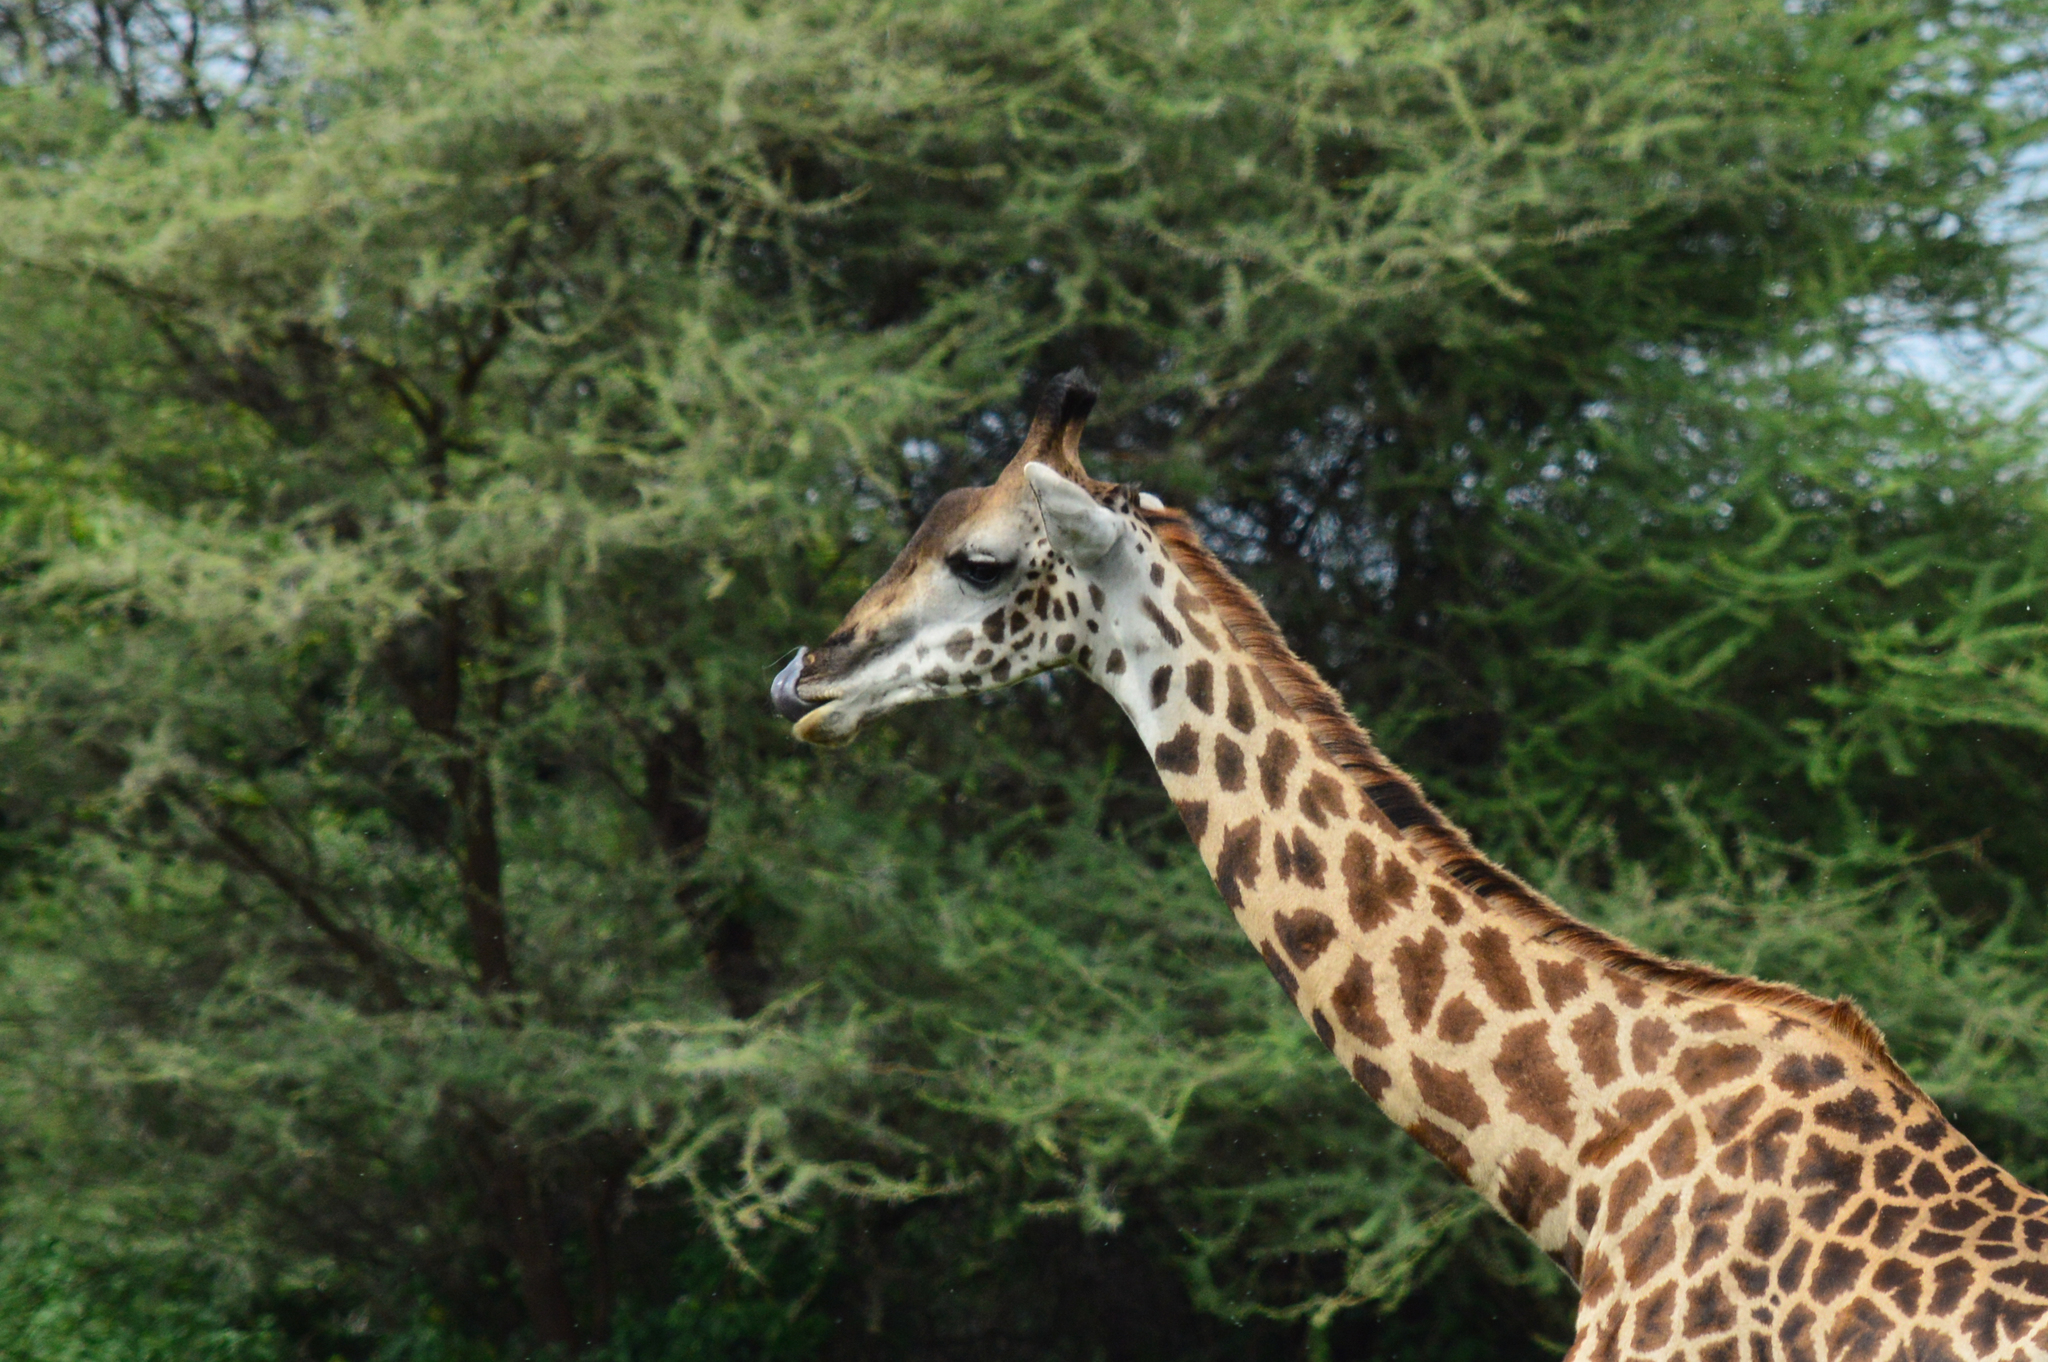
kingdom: Animalia
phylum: Chordata
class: Mammalia
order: Artiodactyla
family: Giraffidae
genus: Giraffa
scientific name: Giraffa tippelskirchi
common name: Masai giraffe
